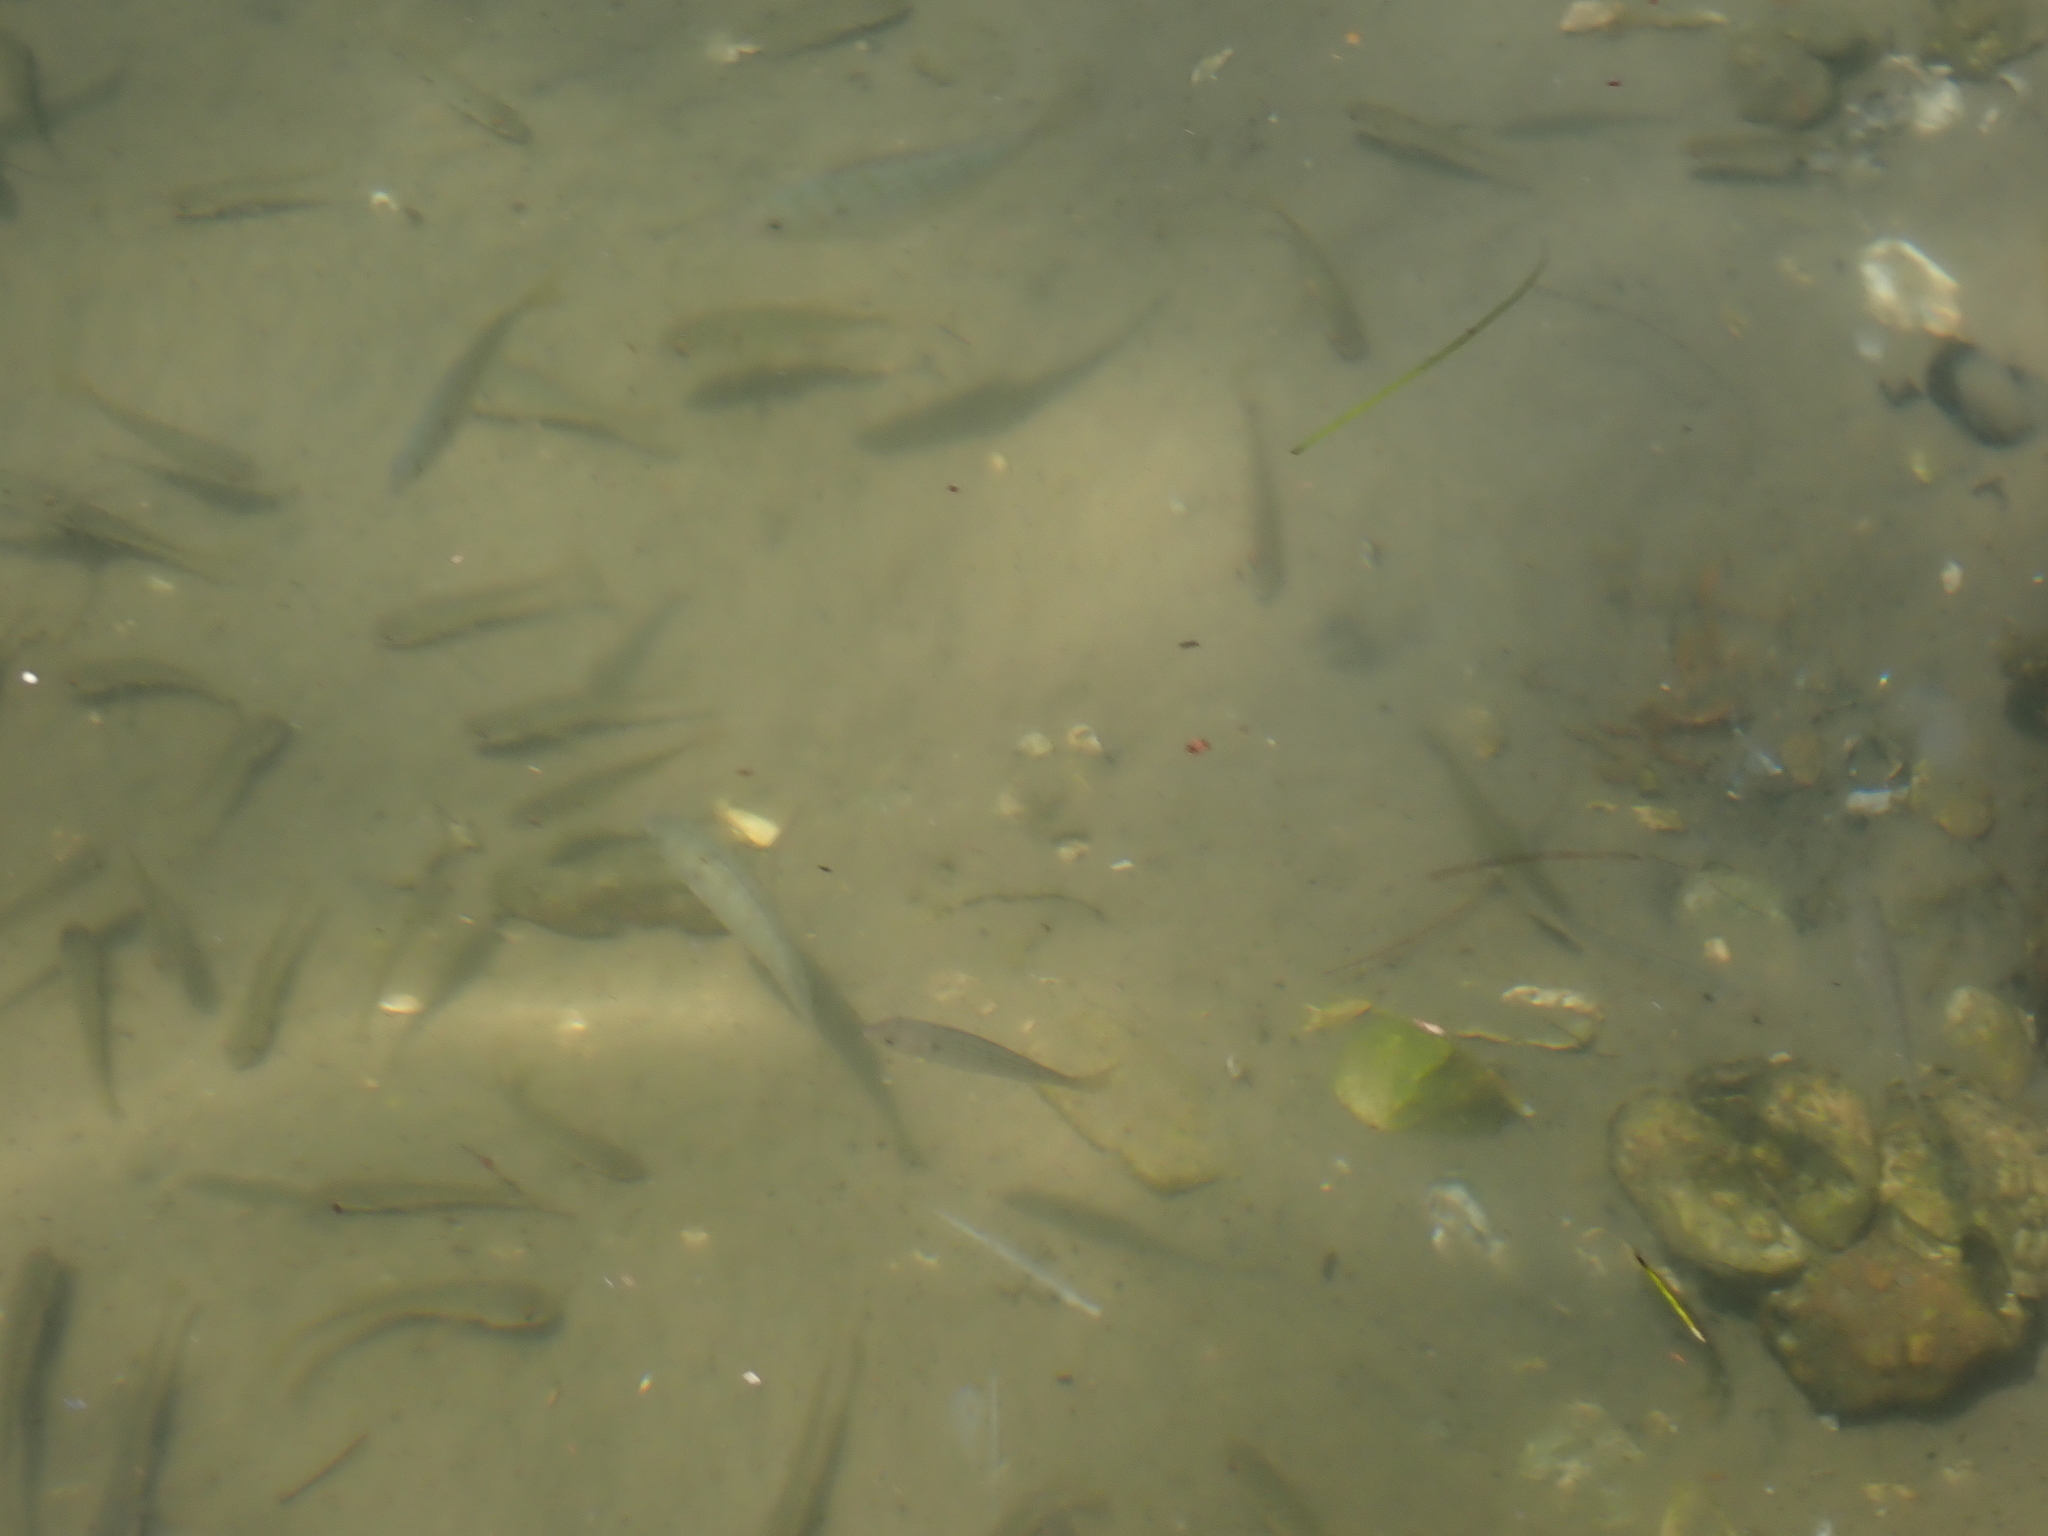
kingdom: Animalia
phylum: Chordata
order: Perciformes
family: Sparidae
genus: Lagodon
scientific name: Lagodon rhomboides
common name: Pinfish
